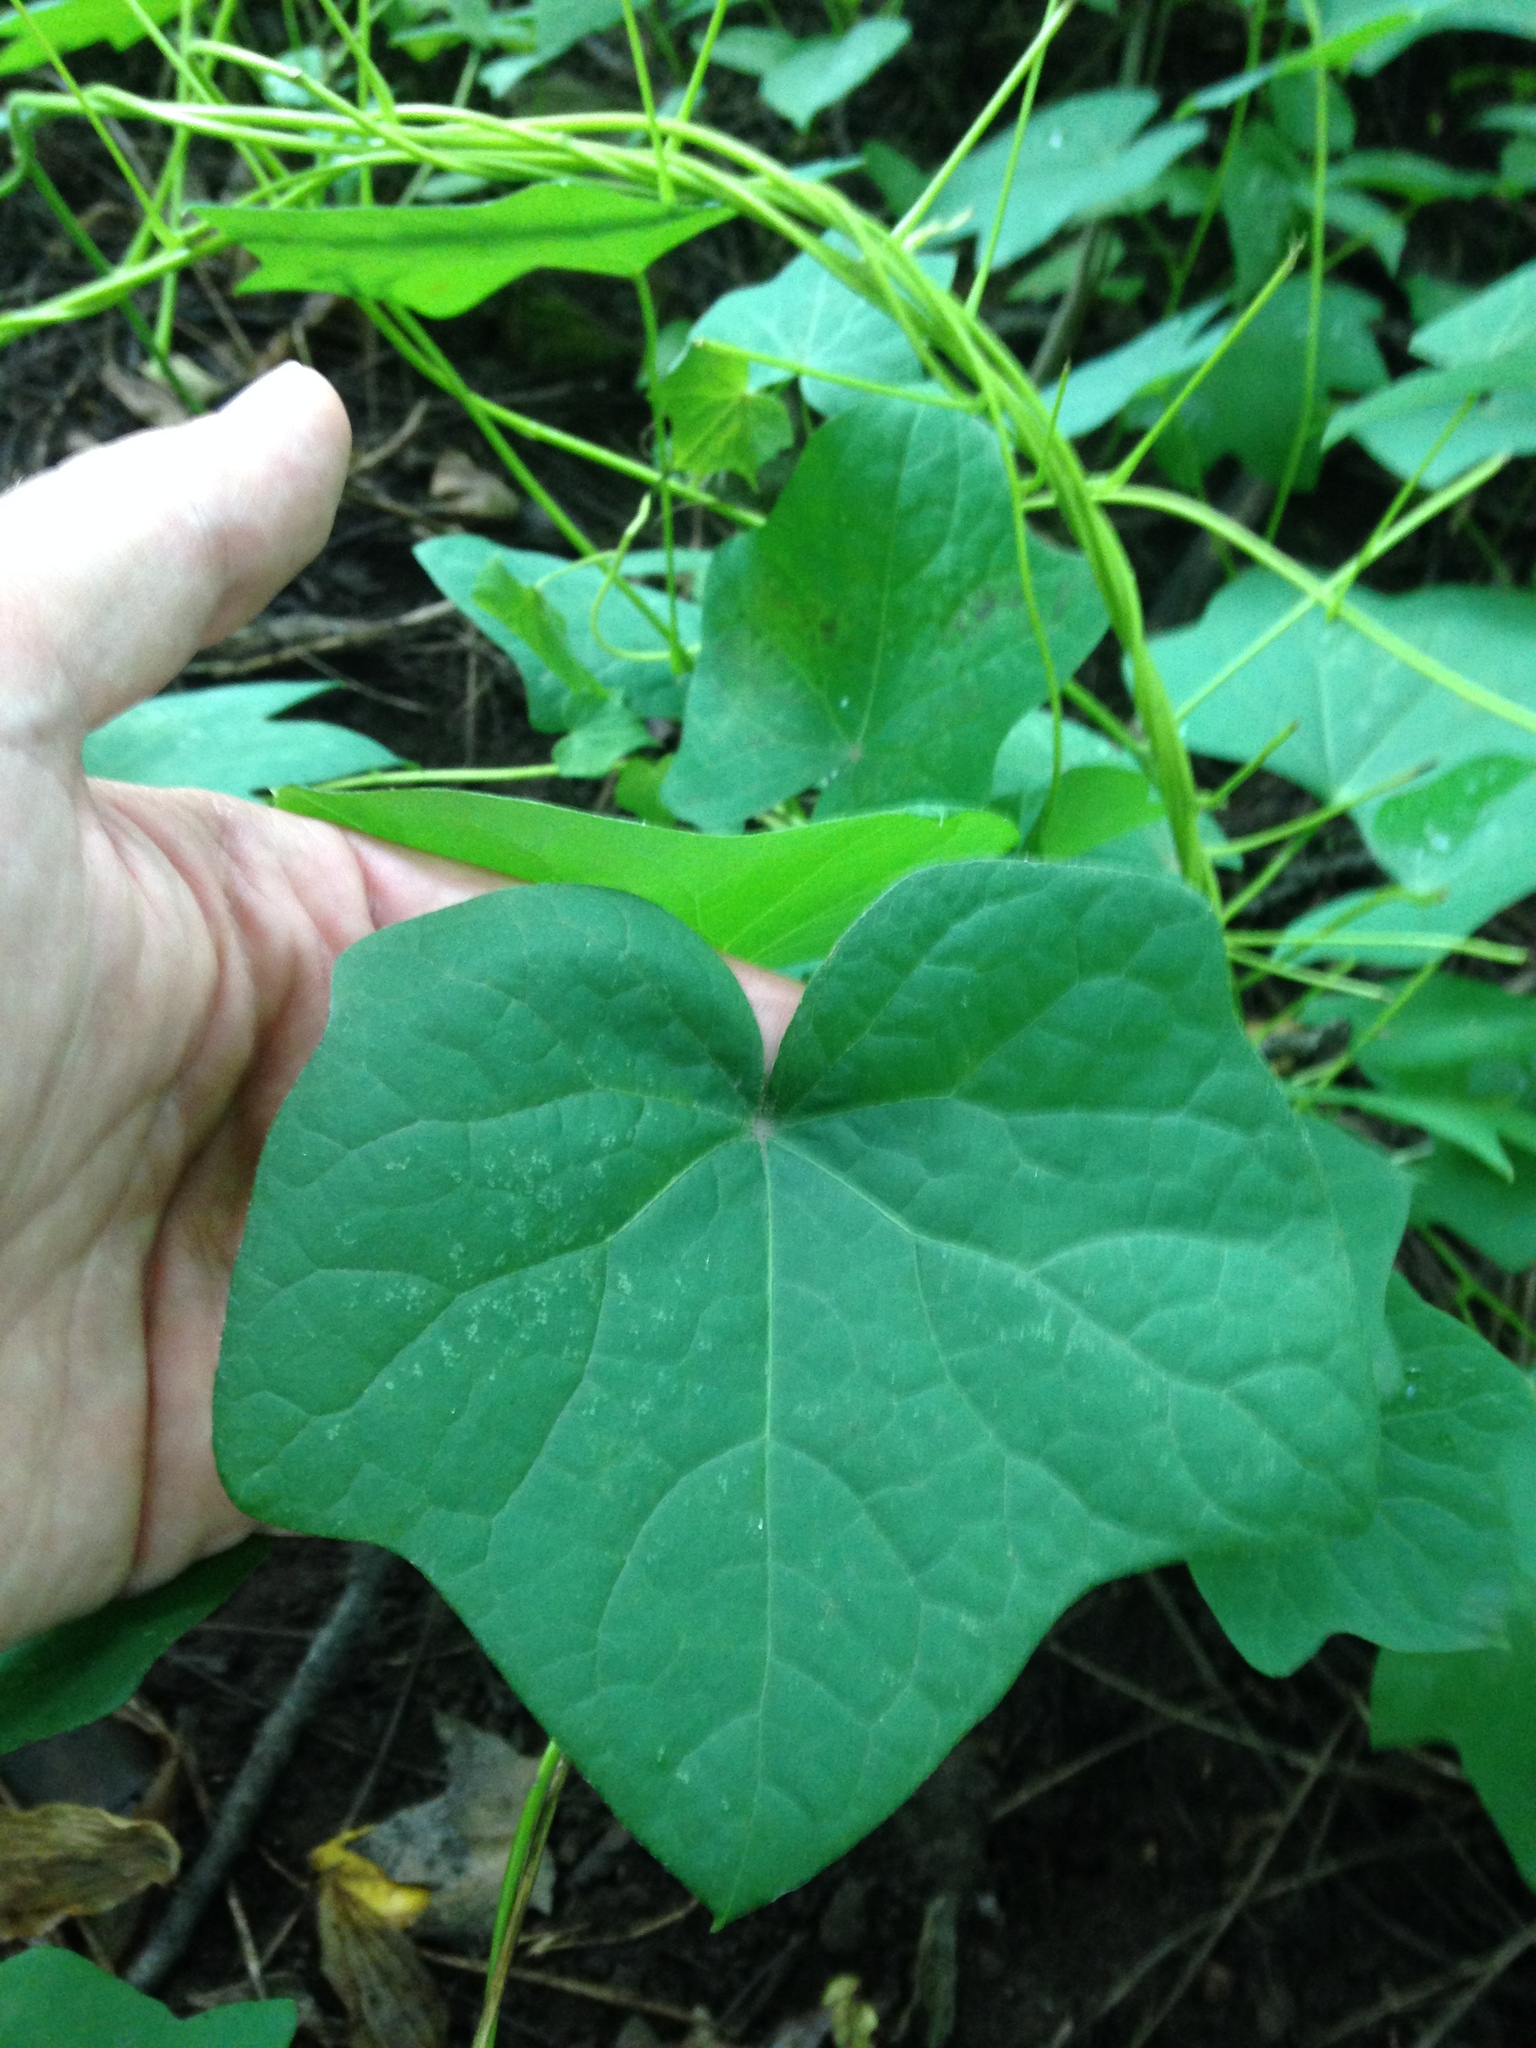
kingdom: Plantae
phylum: Tracheophyta
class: Magnoliopsida
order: Ranunculales
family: Menispermaceae
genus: Menispermum
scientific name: Menispermum canadense
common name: Moonseed
